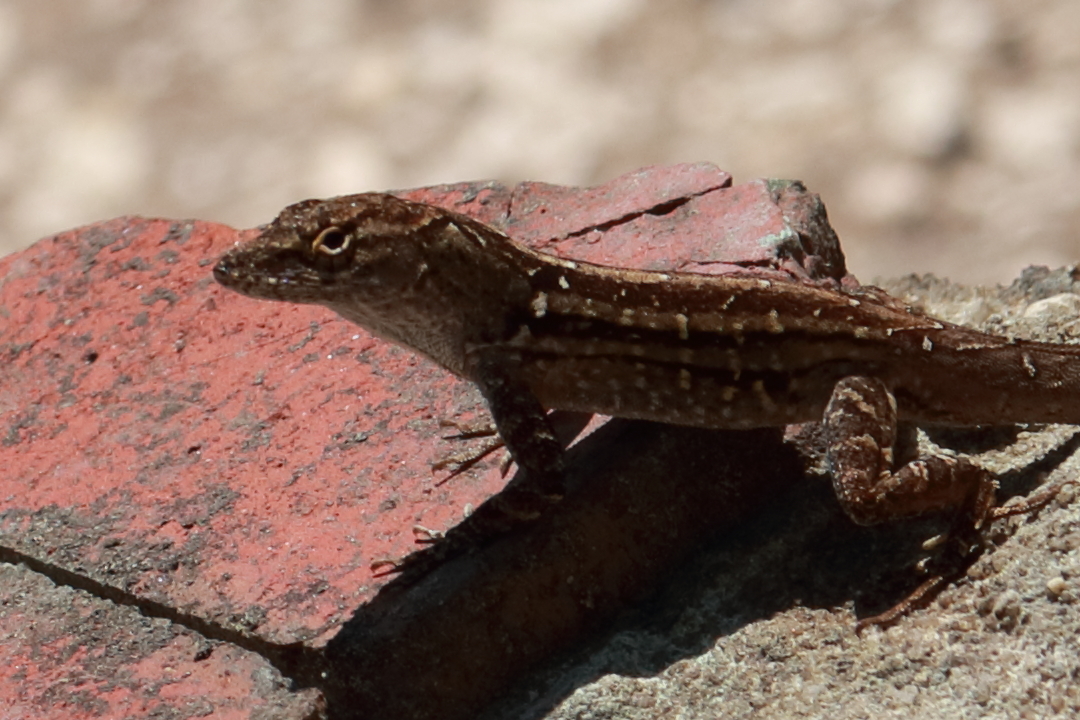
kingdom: Animalia
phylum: Chordata
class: Squamata
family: Dactyloidae
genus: Anolis
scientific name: Anolis sagrei
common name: Brown anole
